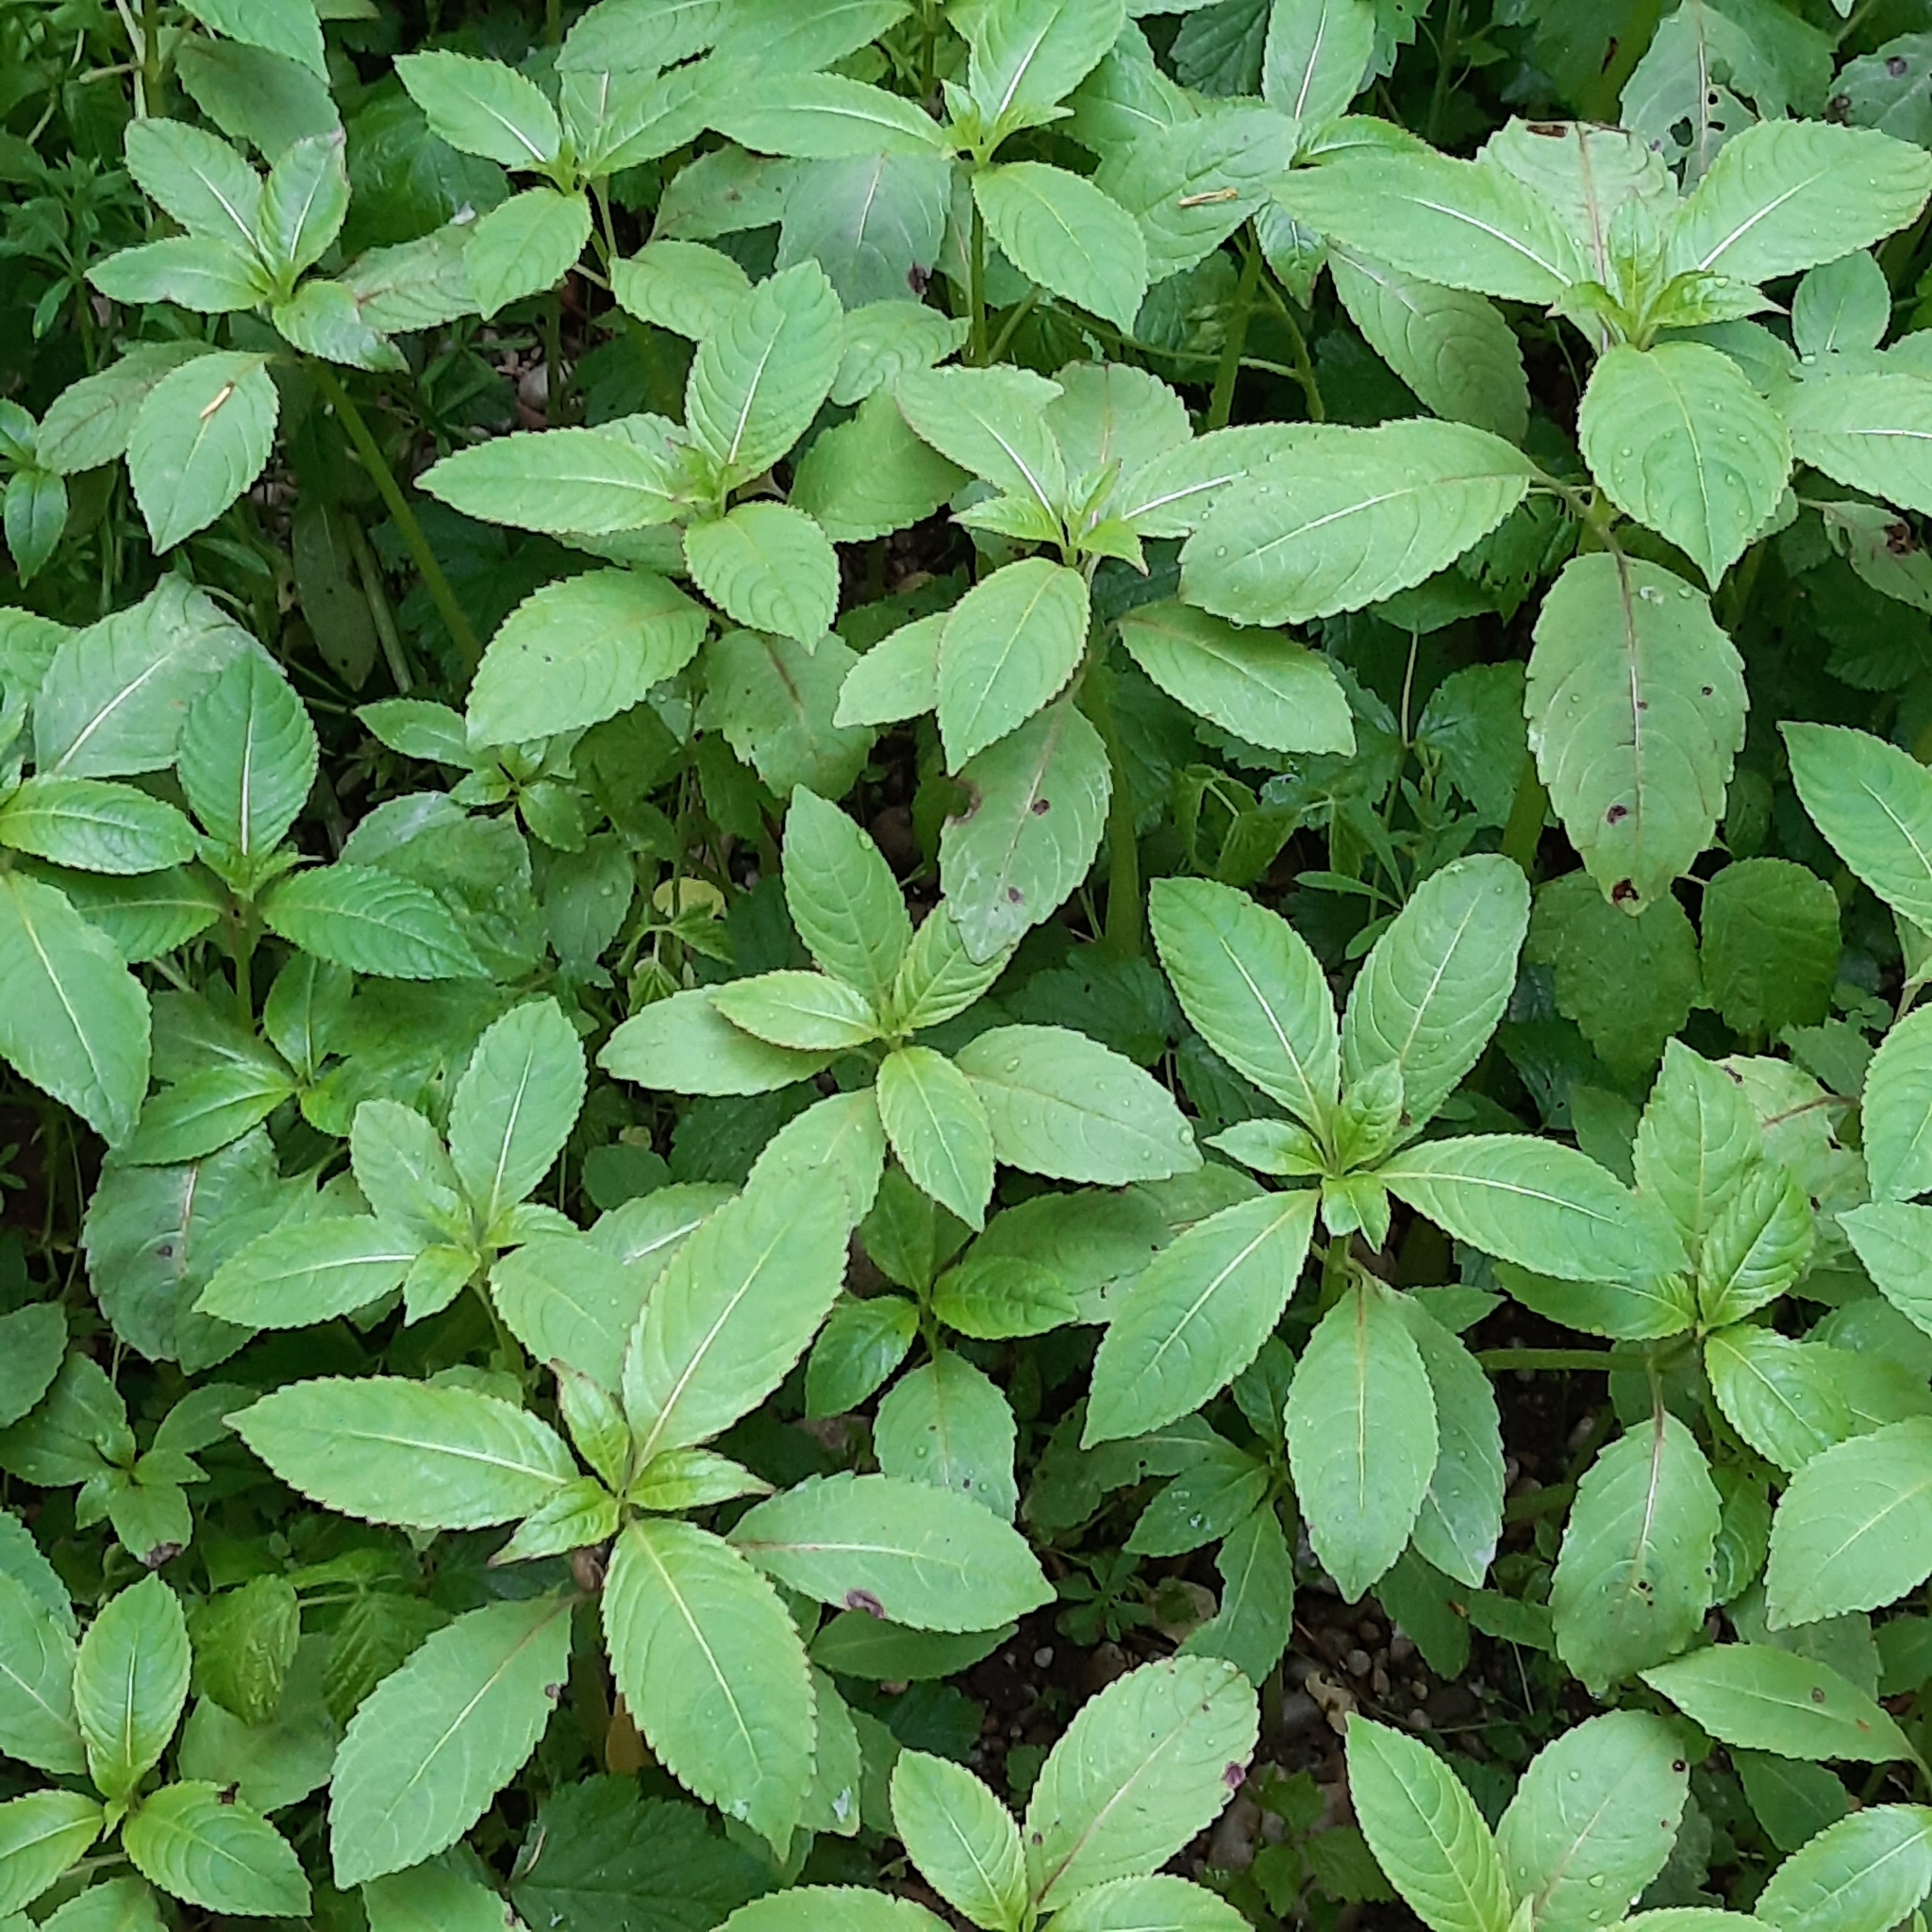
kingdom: Plantae
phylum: Tracheophyta
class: Magnoliopsida
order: Ericales
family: Balsaminaceae
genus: Impatiens
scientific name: Impatiens glandulifera
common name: Himalayan balsam
